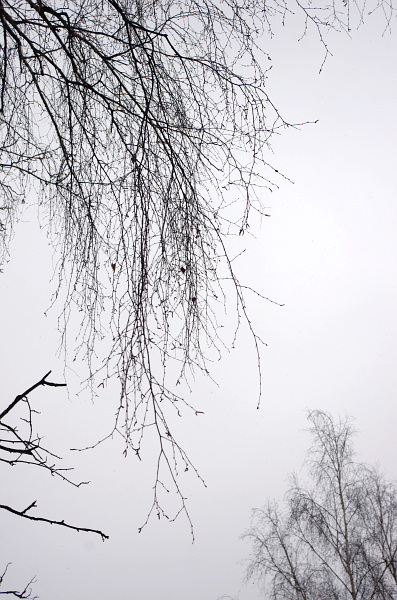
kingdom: Plantae
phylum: Tracheophyta
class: Magnoliopsida
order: Fagales
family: Betulaceae
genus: Betula
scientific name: Betula pendula
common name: Silver birch
